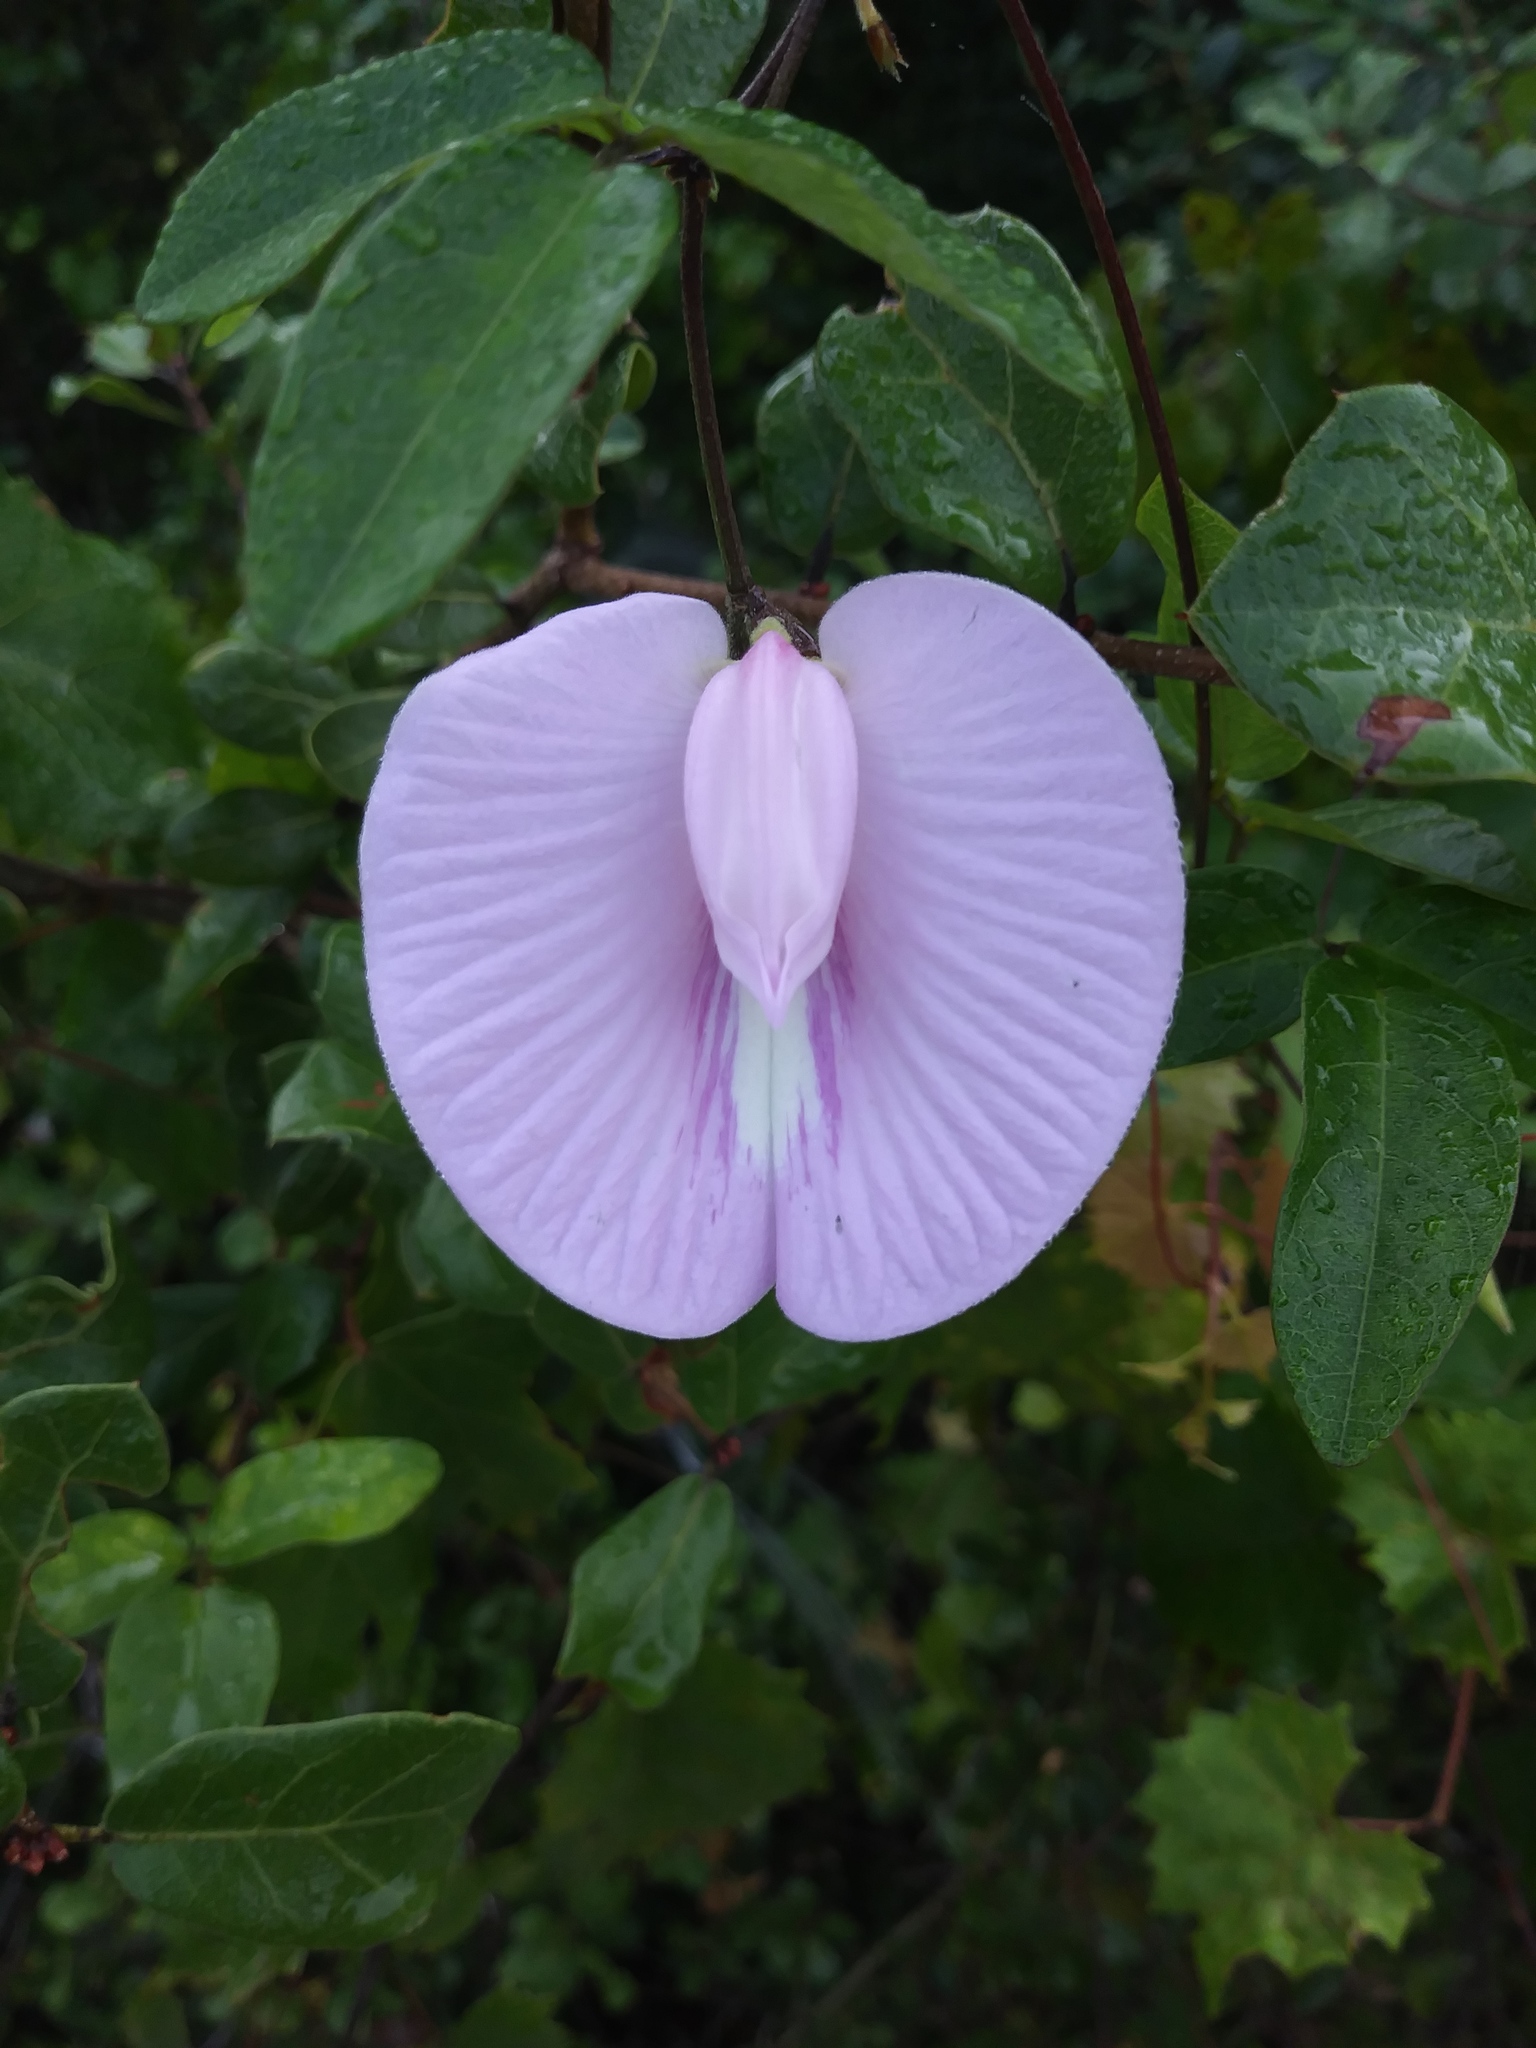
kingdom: Plantae
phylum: Tracheophyta
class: Magnoliopsida
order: Fabales
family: Fabaceae
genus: Centrosema
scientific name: Centrosema virginianum
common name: Butterfly-pea
